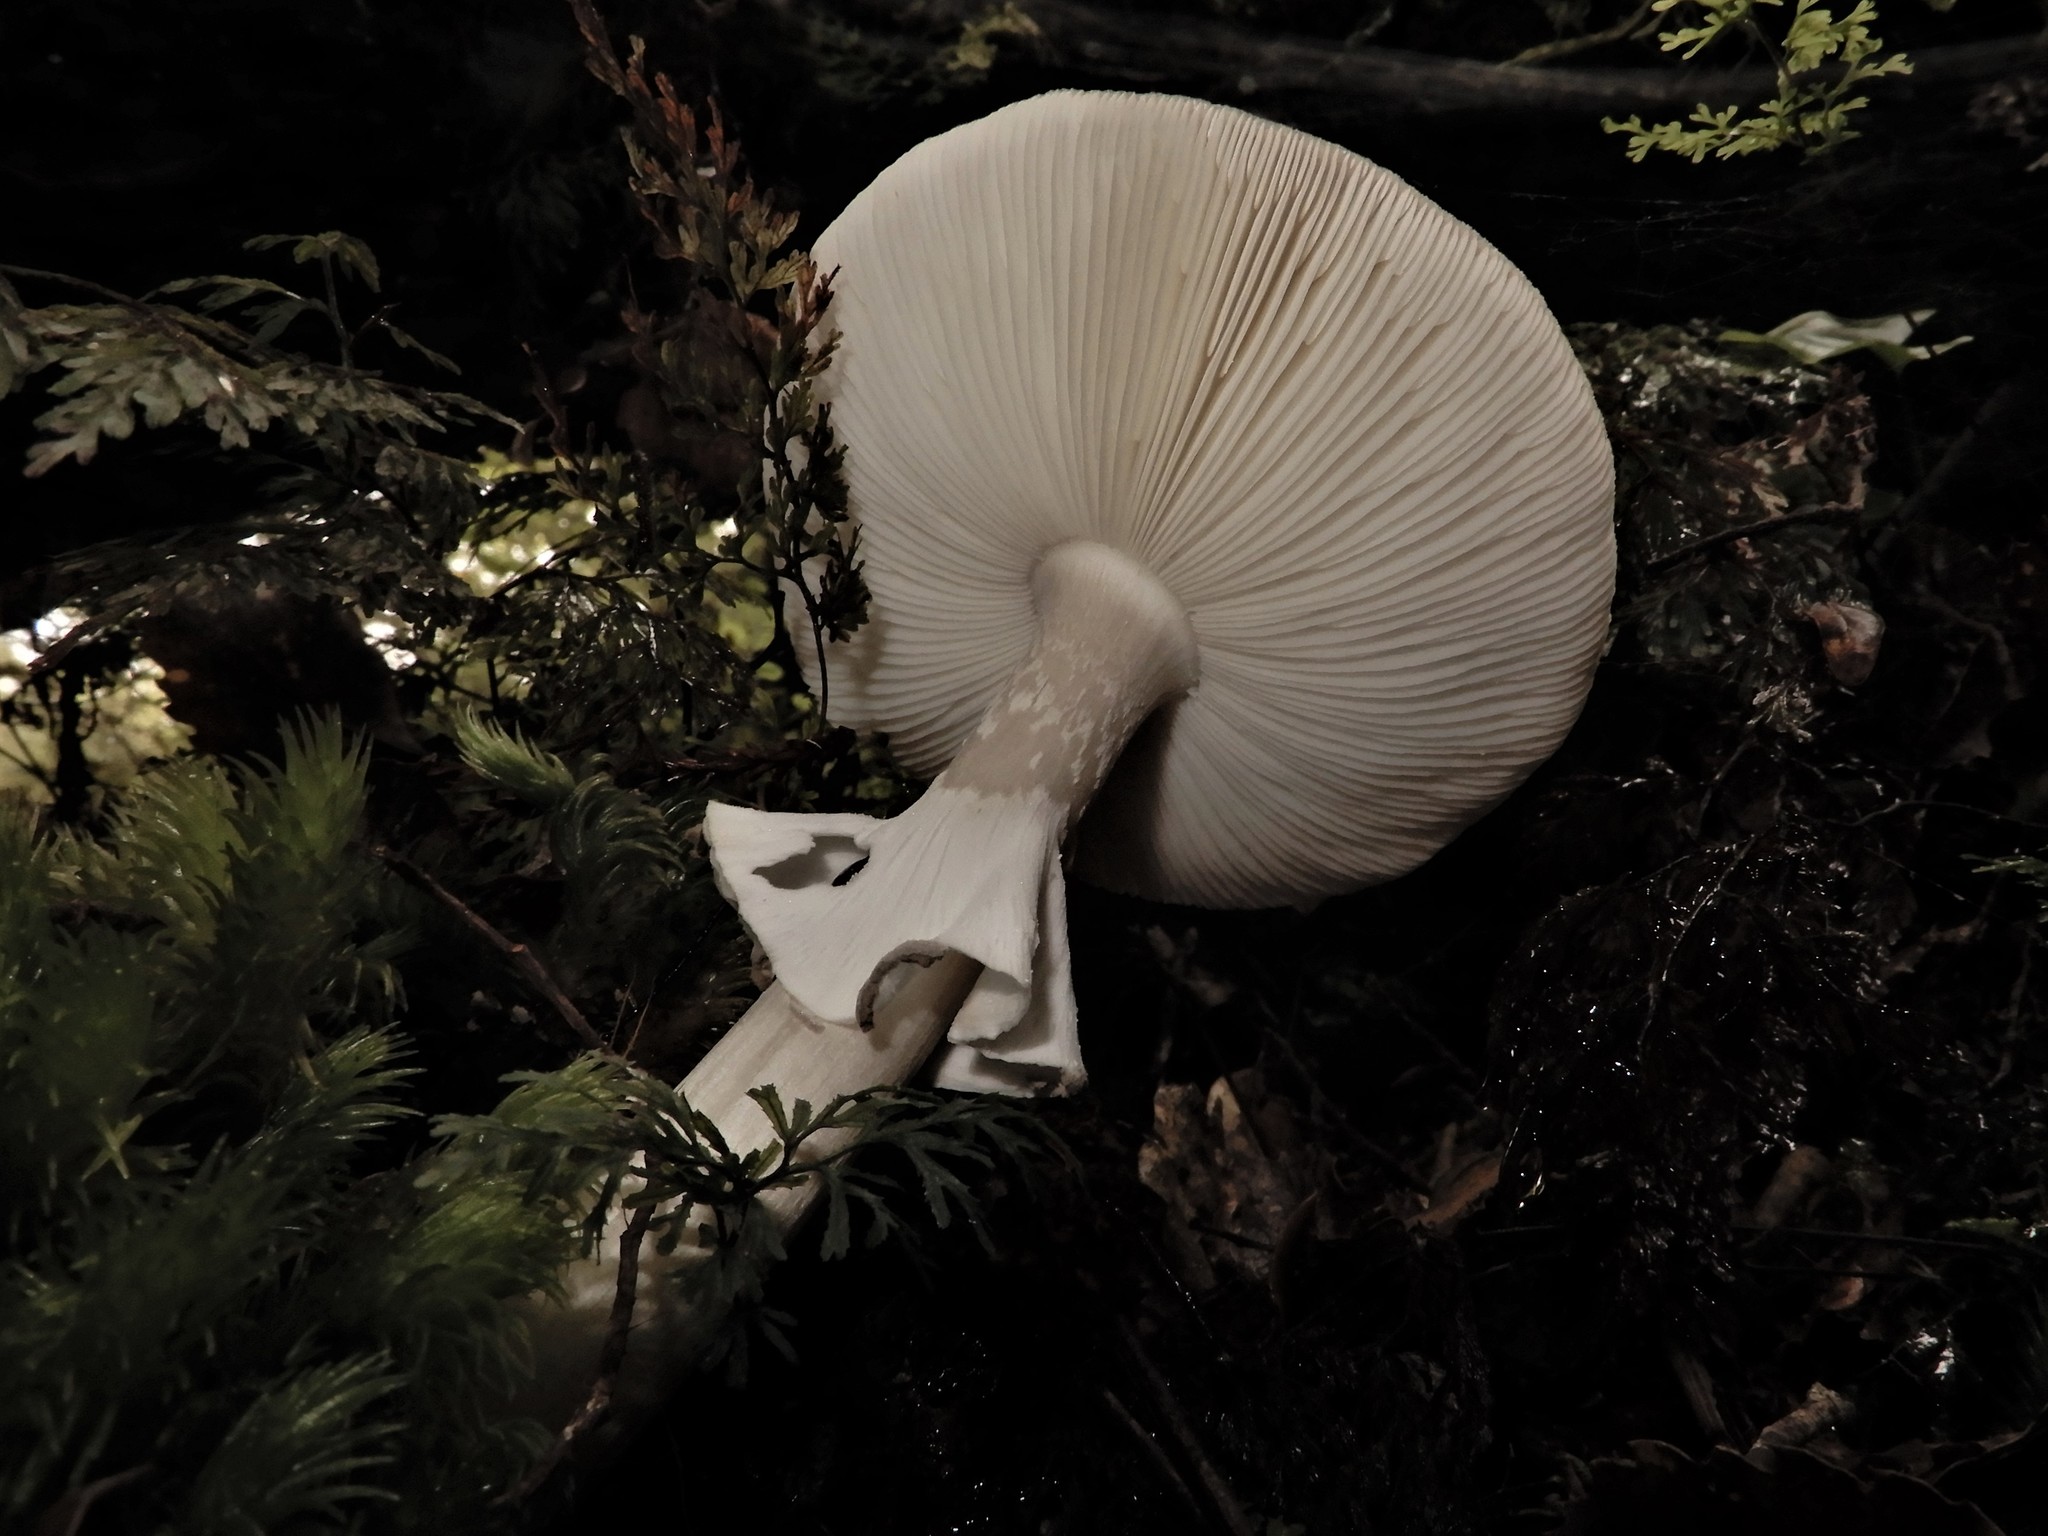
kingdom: Fungi
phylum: Basidiomycota
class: Agaricomycetes
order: Agaricales
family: Amanitaceae
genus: Amanita
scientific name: Amanita nothofagi
